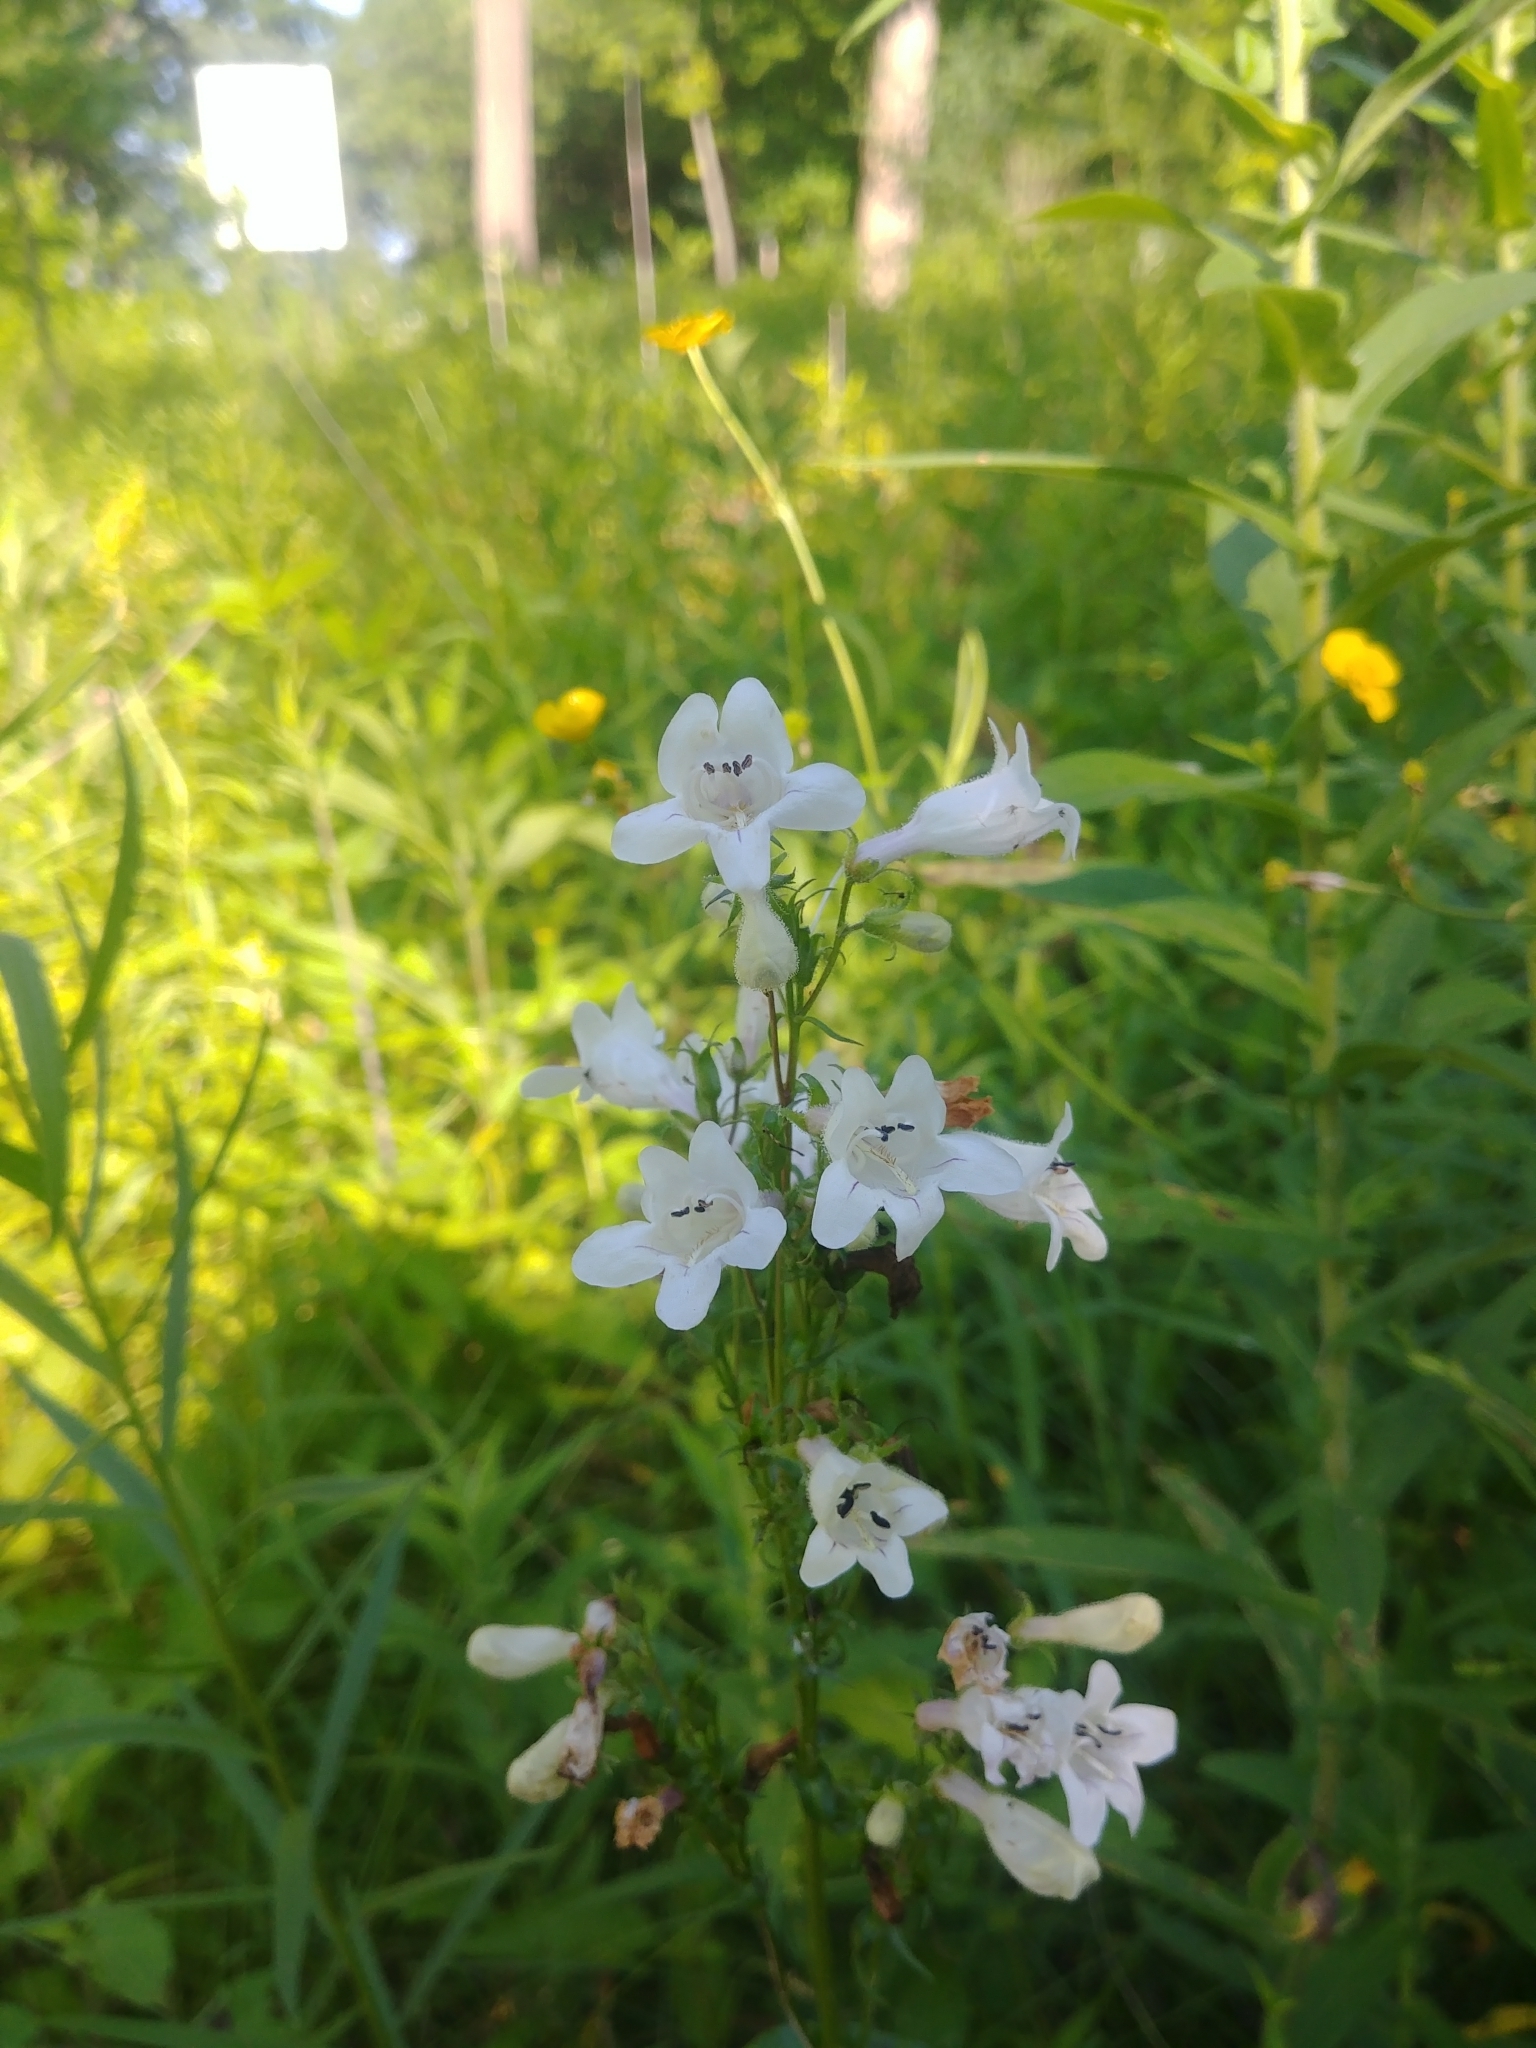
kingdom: Plantae
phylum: Tracheophyta
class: Magnoliopsida
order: Lamiales
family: Plantaginaceae
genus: Penstemon
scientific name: Penstemon digitalis
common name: Foxglove beardtongue
